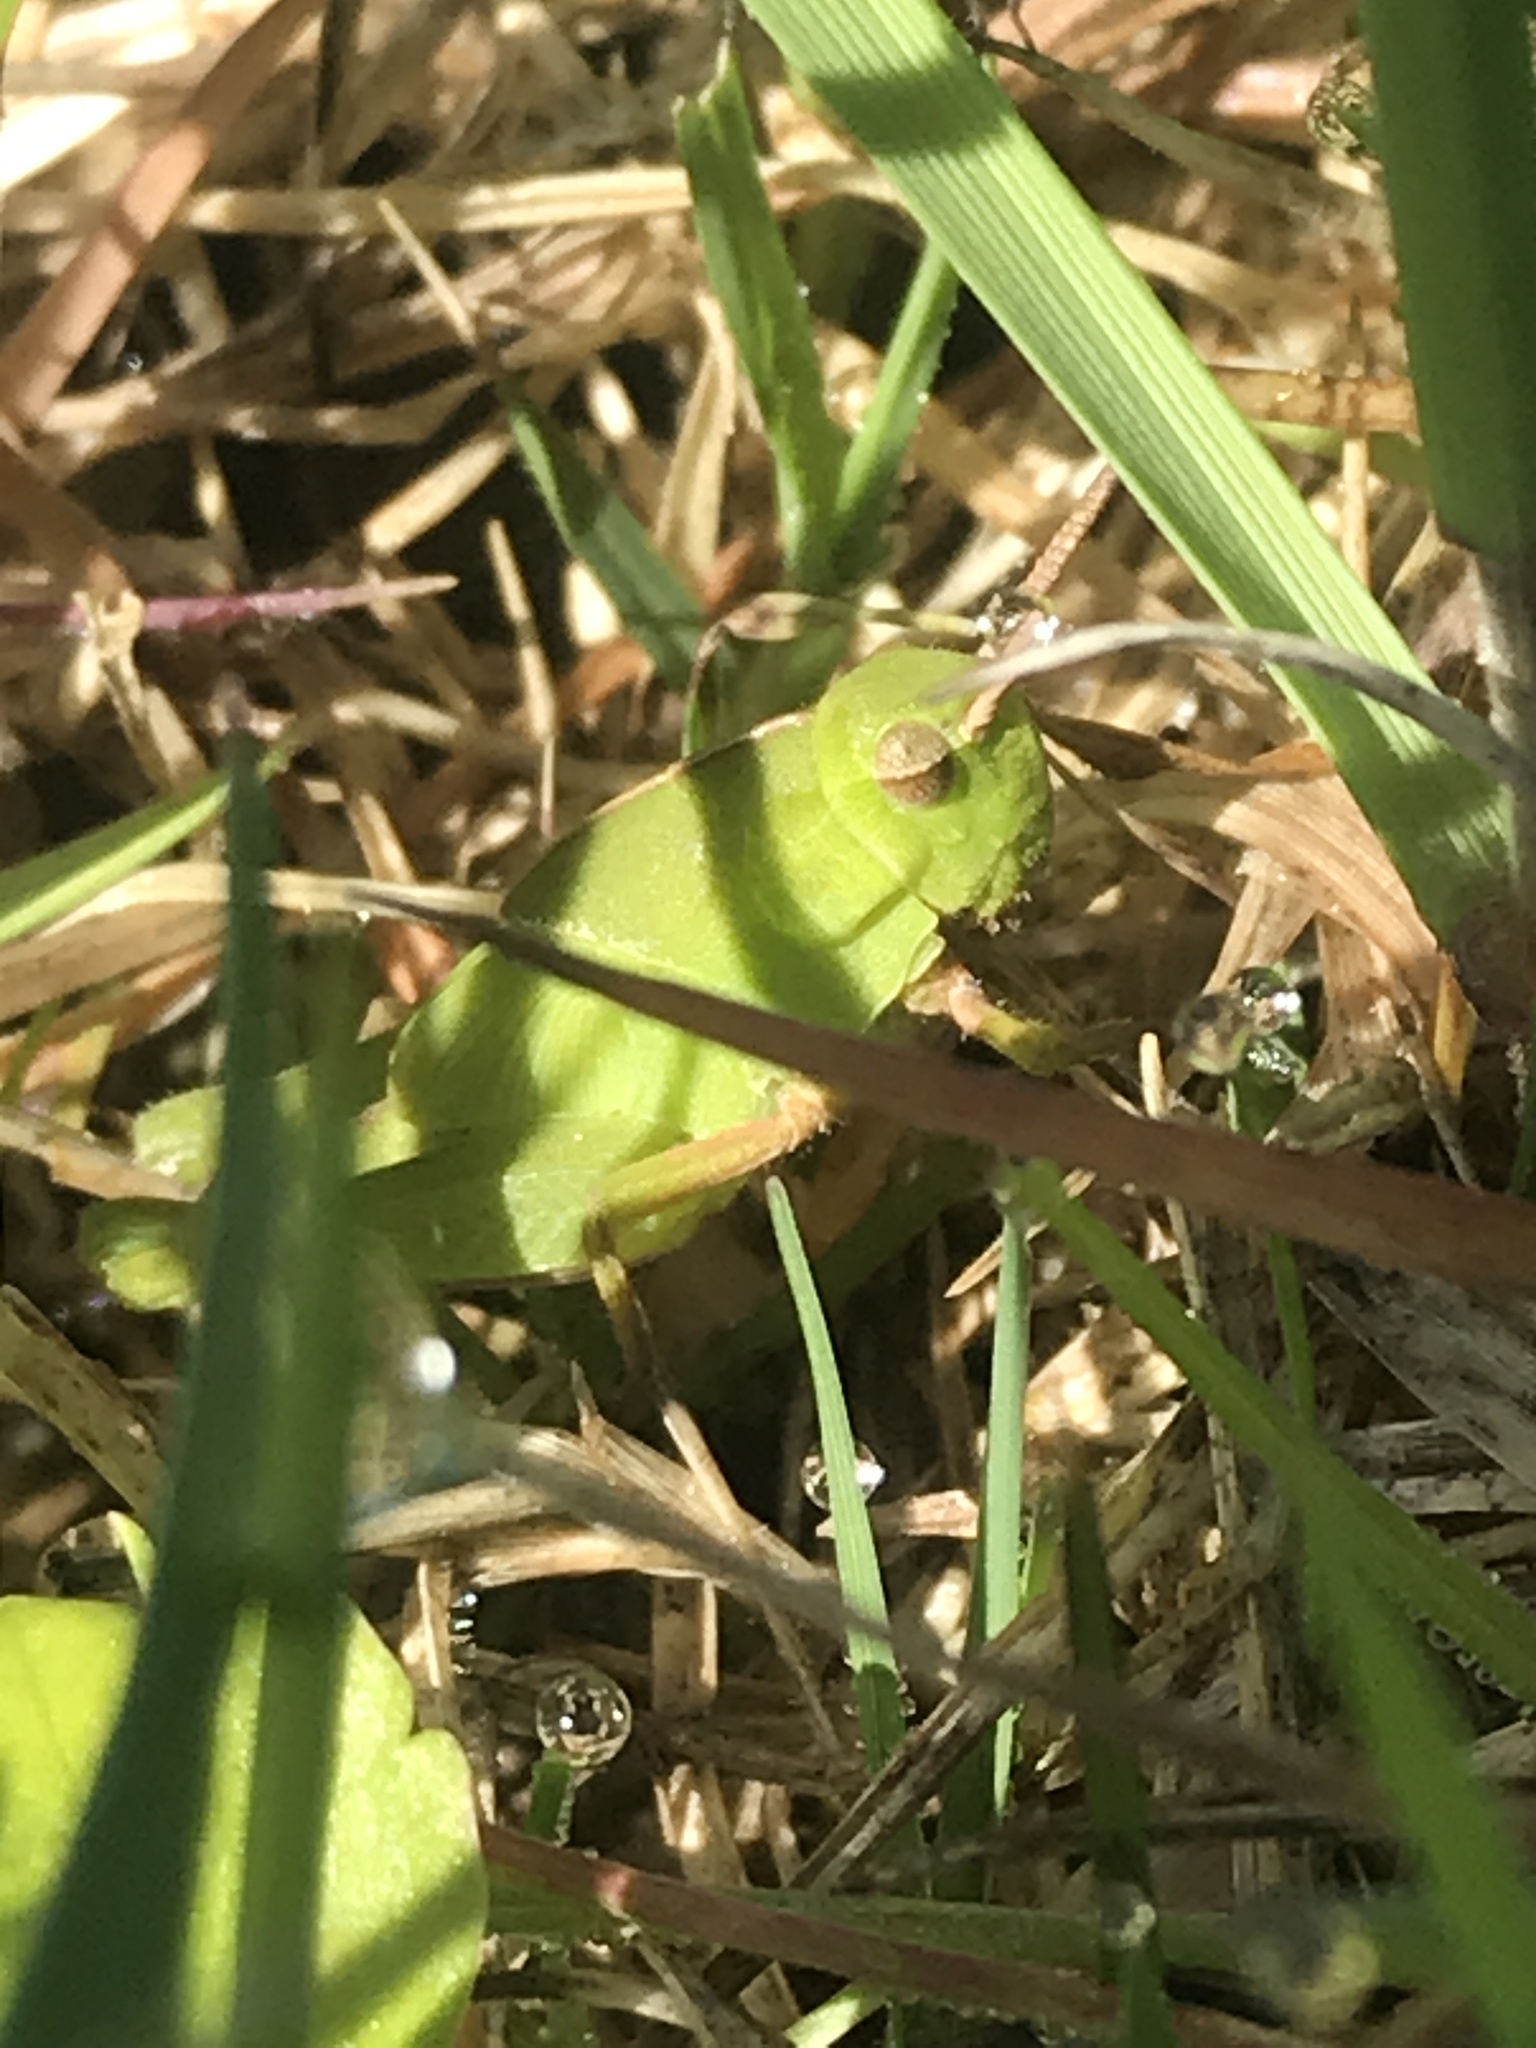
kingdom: Animalia
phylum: Arthropoda
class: Insecta
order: Orthoptera
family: Acrididae
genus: Chortophaga
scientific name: Chortophaga viridifasciata
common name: Green-striped grasshopper
